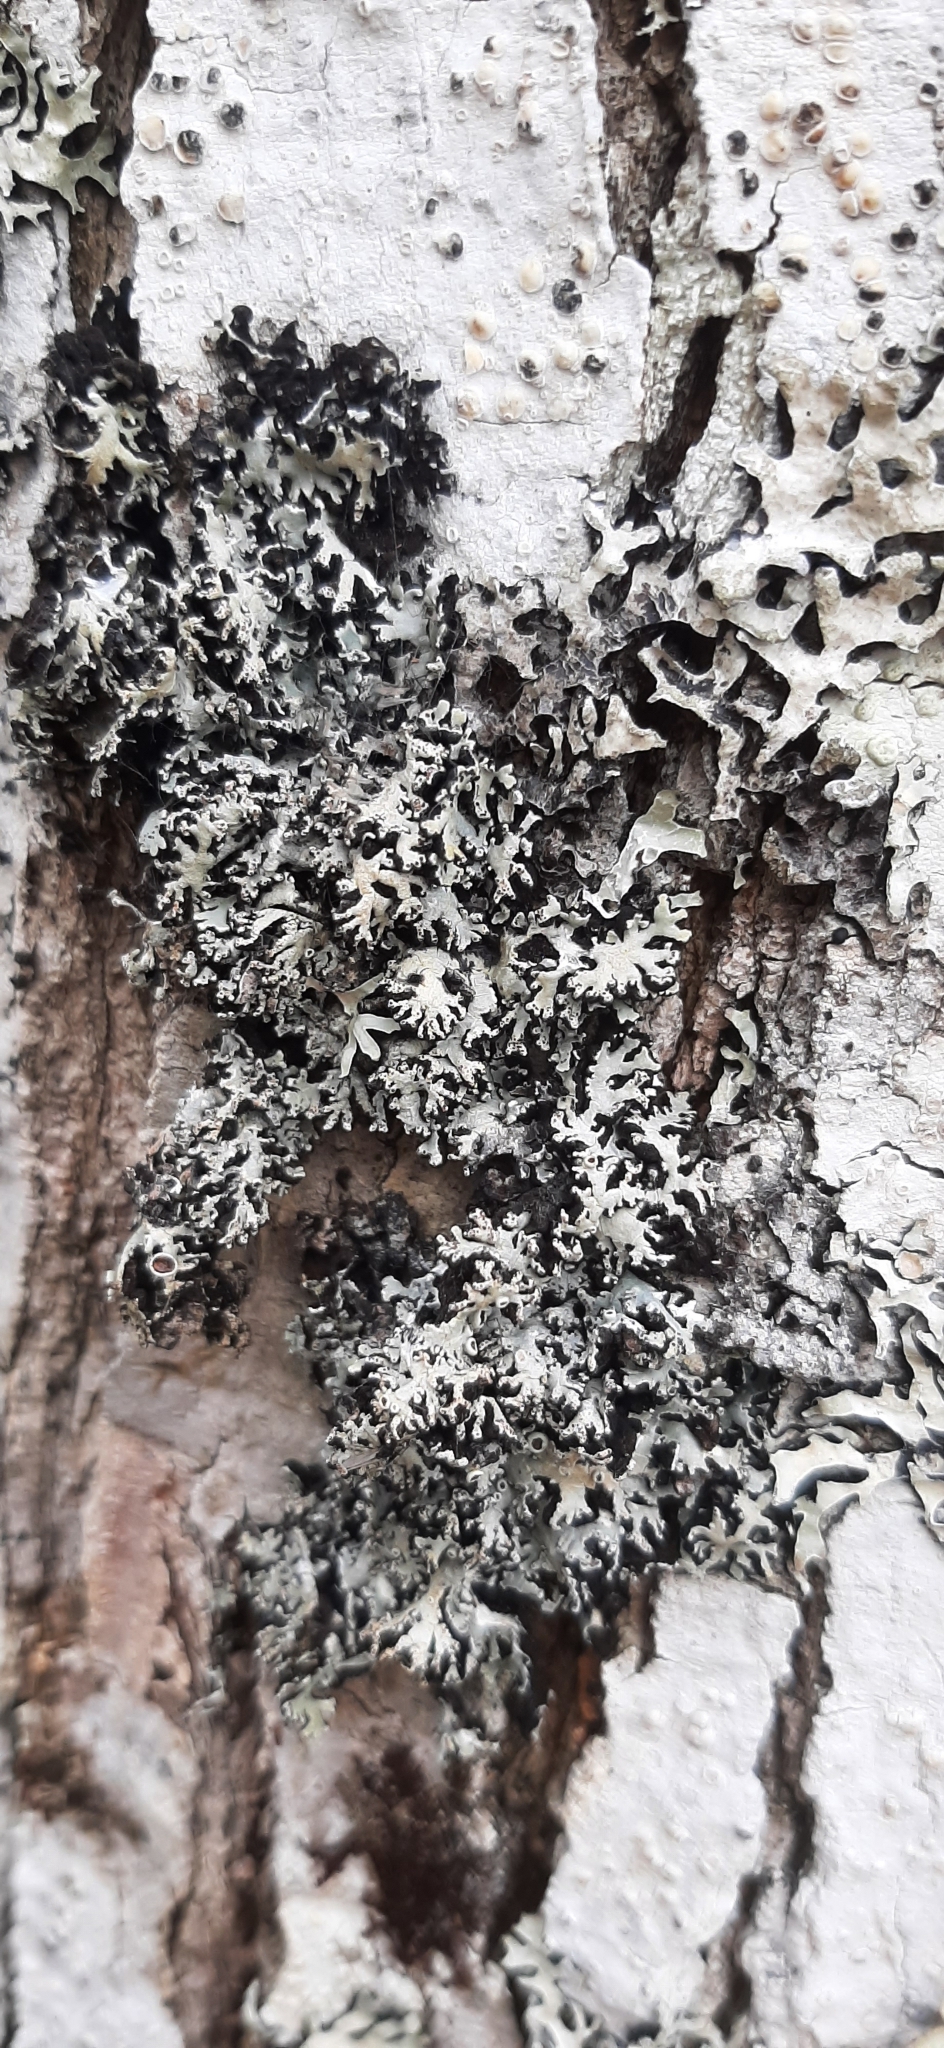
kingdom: Fungi
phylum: Ascomycota
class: Lecanoromycetes
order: Lecanorales
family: Parmeliaceae
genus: Anzia
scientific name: Anzia colpodes
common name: Black-foam lichen
